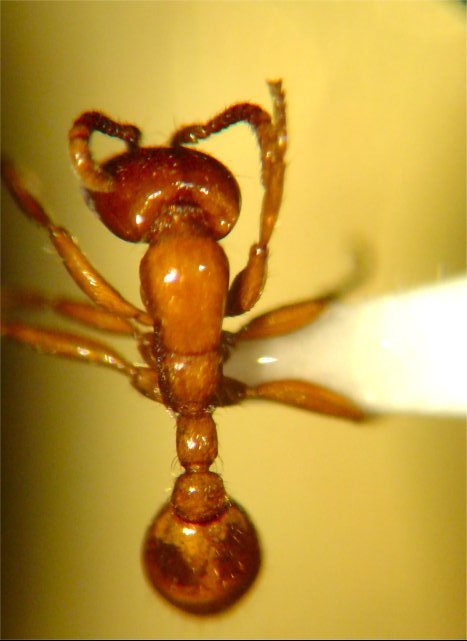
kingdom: Animalia
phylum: Arthropoda
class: Insecta
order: Hymenoptera
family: Formicidae
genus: Neivamyrmex
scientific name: Neivamyrmex swainsonii
